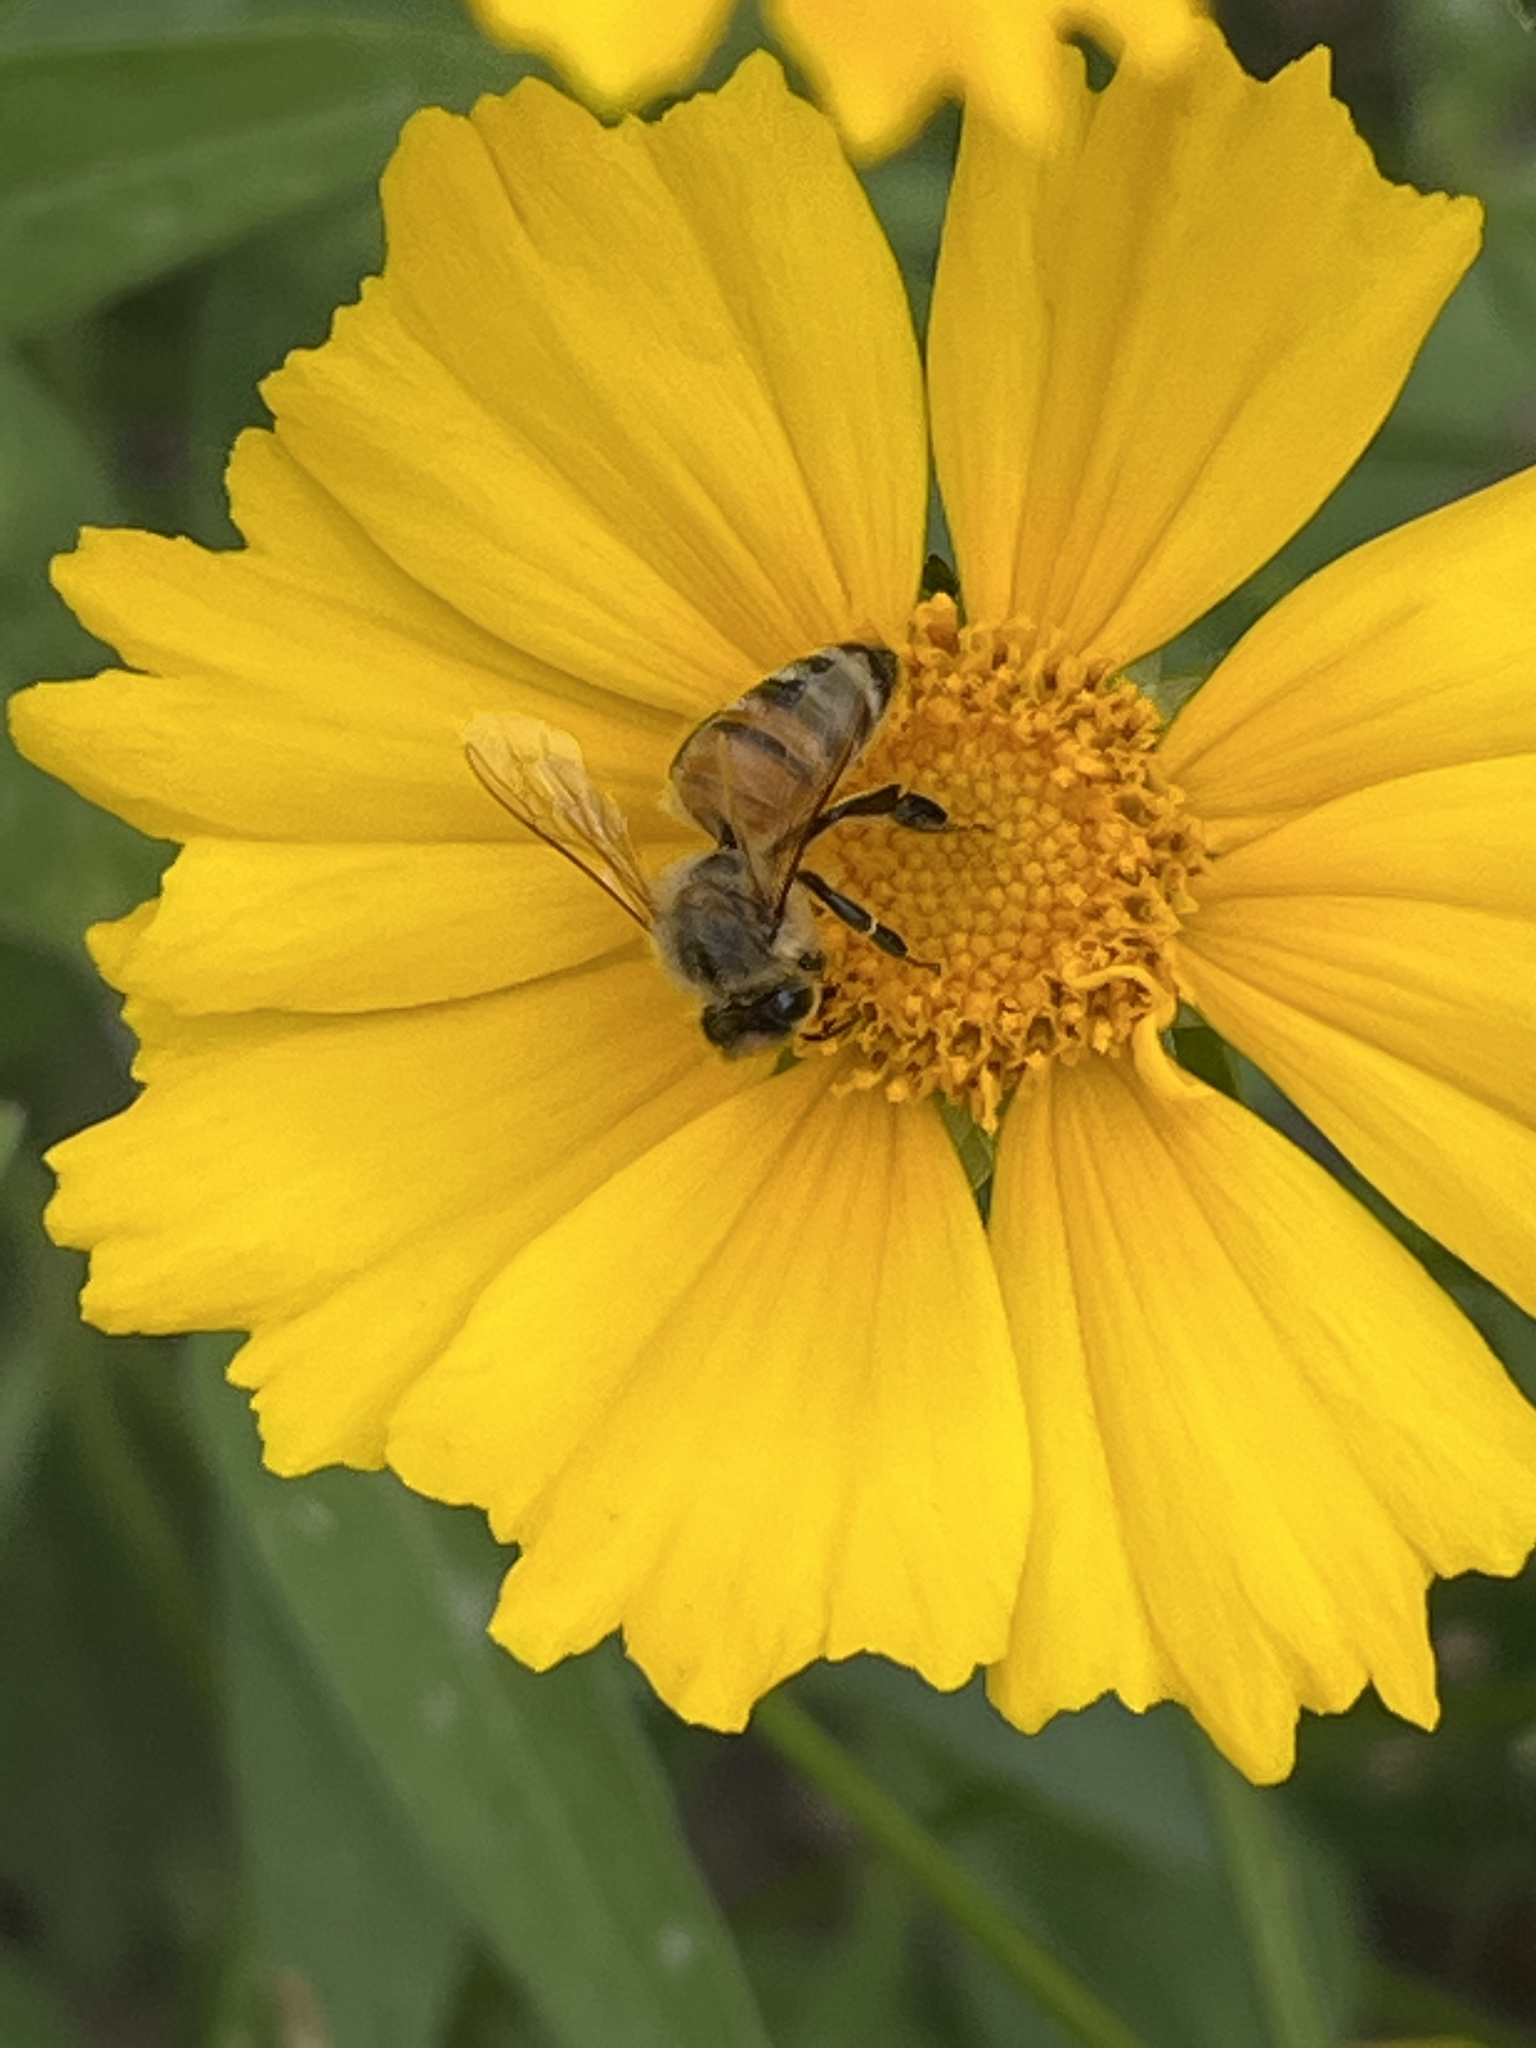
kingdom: Animalia
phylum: Arthropoda
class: Insecta
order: Hymenoptera
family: Apidae
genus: Apis
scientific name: Apis mellifera
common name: Honey bee
